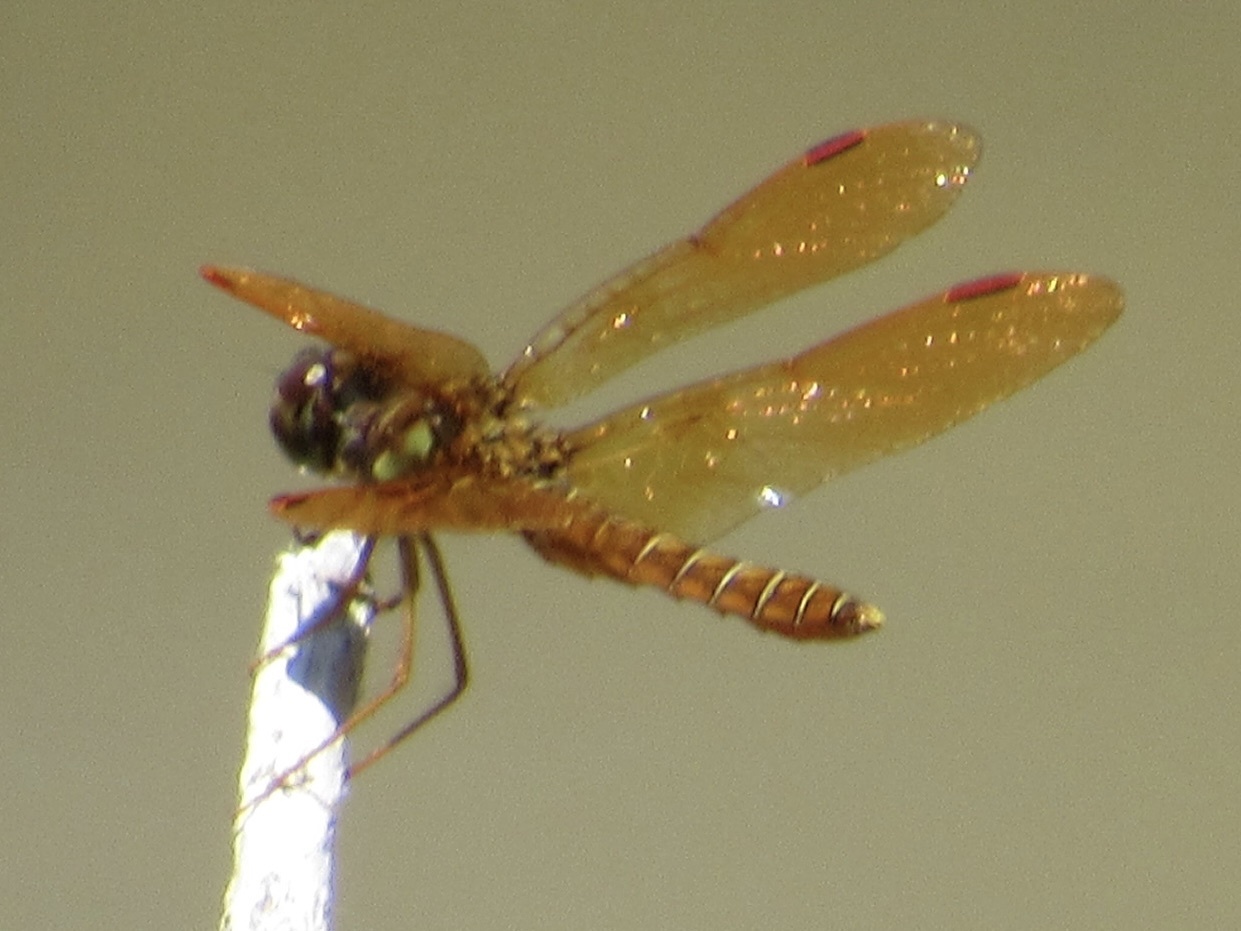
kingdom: Animalia
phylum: Arthropoda
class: Insecta
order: Odonata
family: Libellulidae
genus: Perithemis
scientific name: Perithemis tenera
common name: Eastern amberwing
